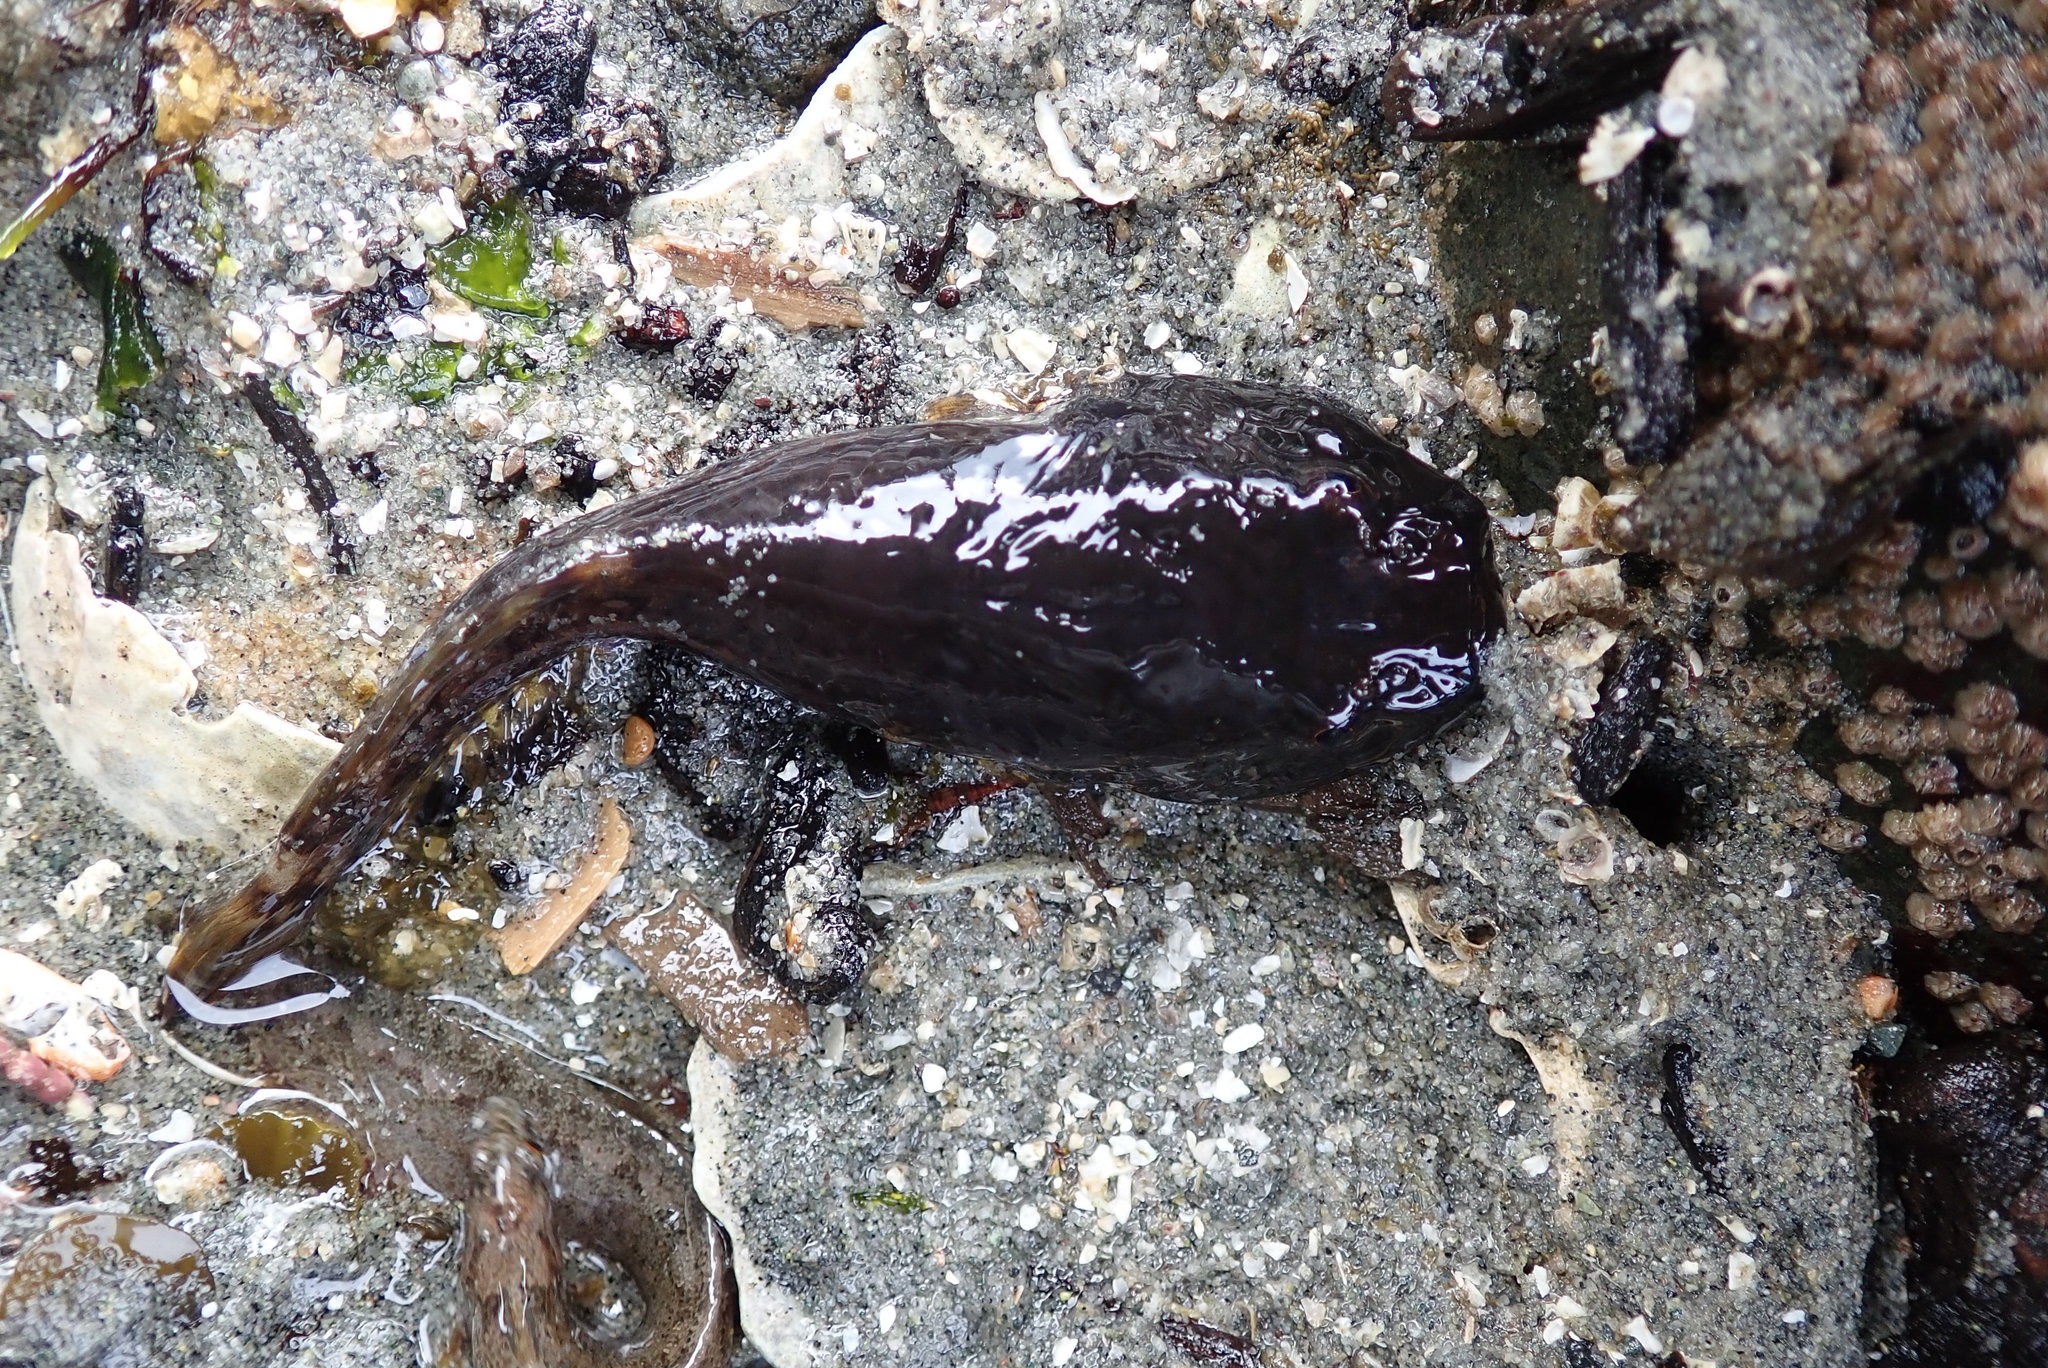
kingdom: Animalia
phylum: Chordata
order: Gobiesociformes
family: Gobiesocidae
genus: Gobiesox
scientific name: Gobiesox maeandricus
